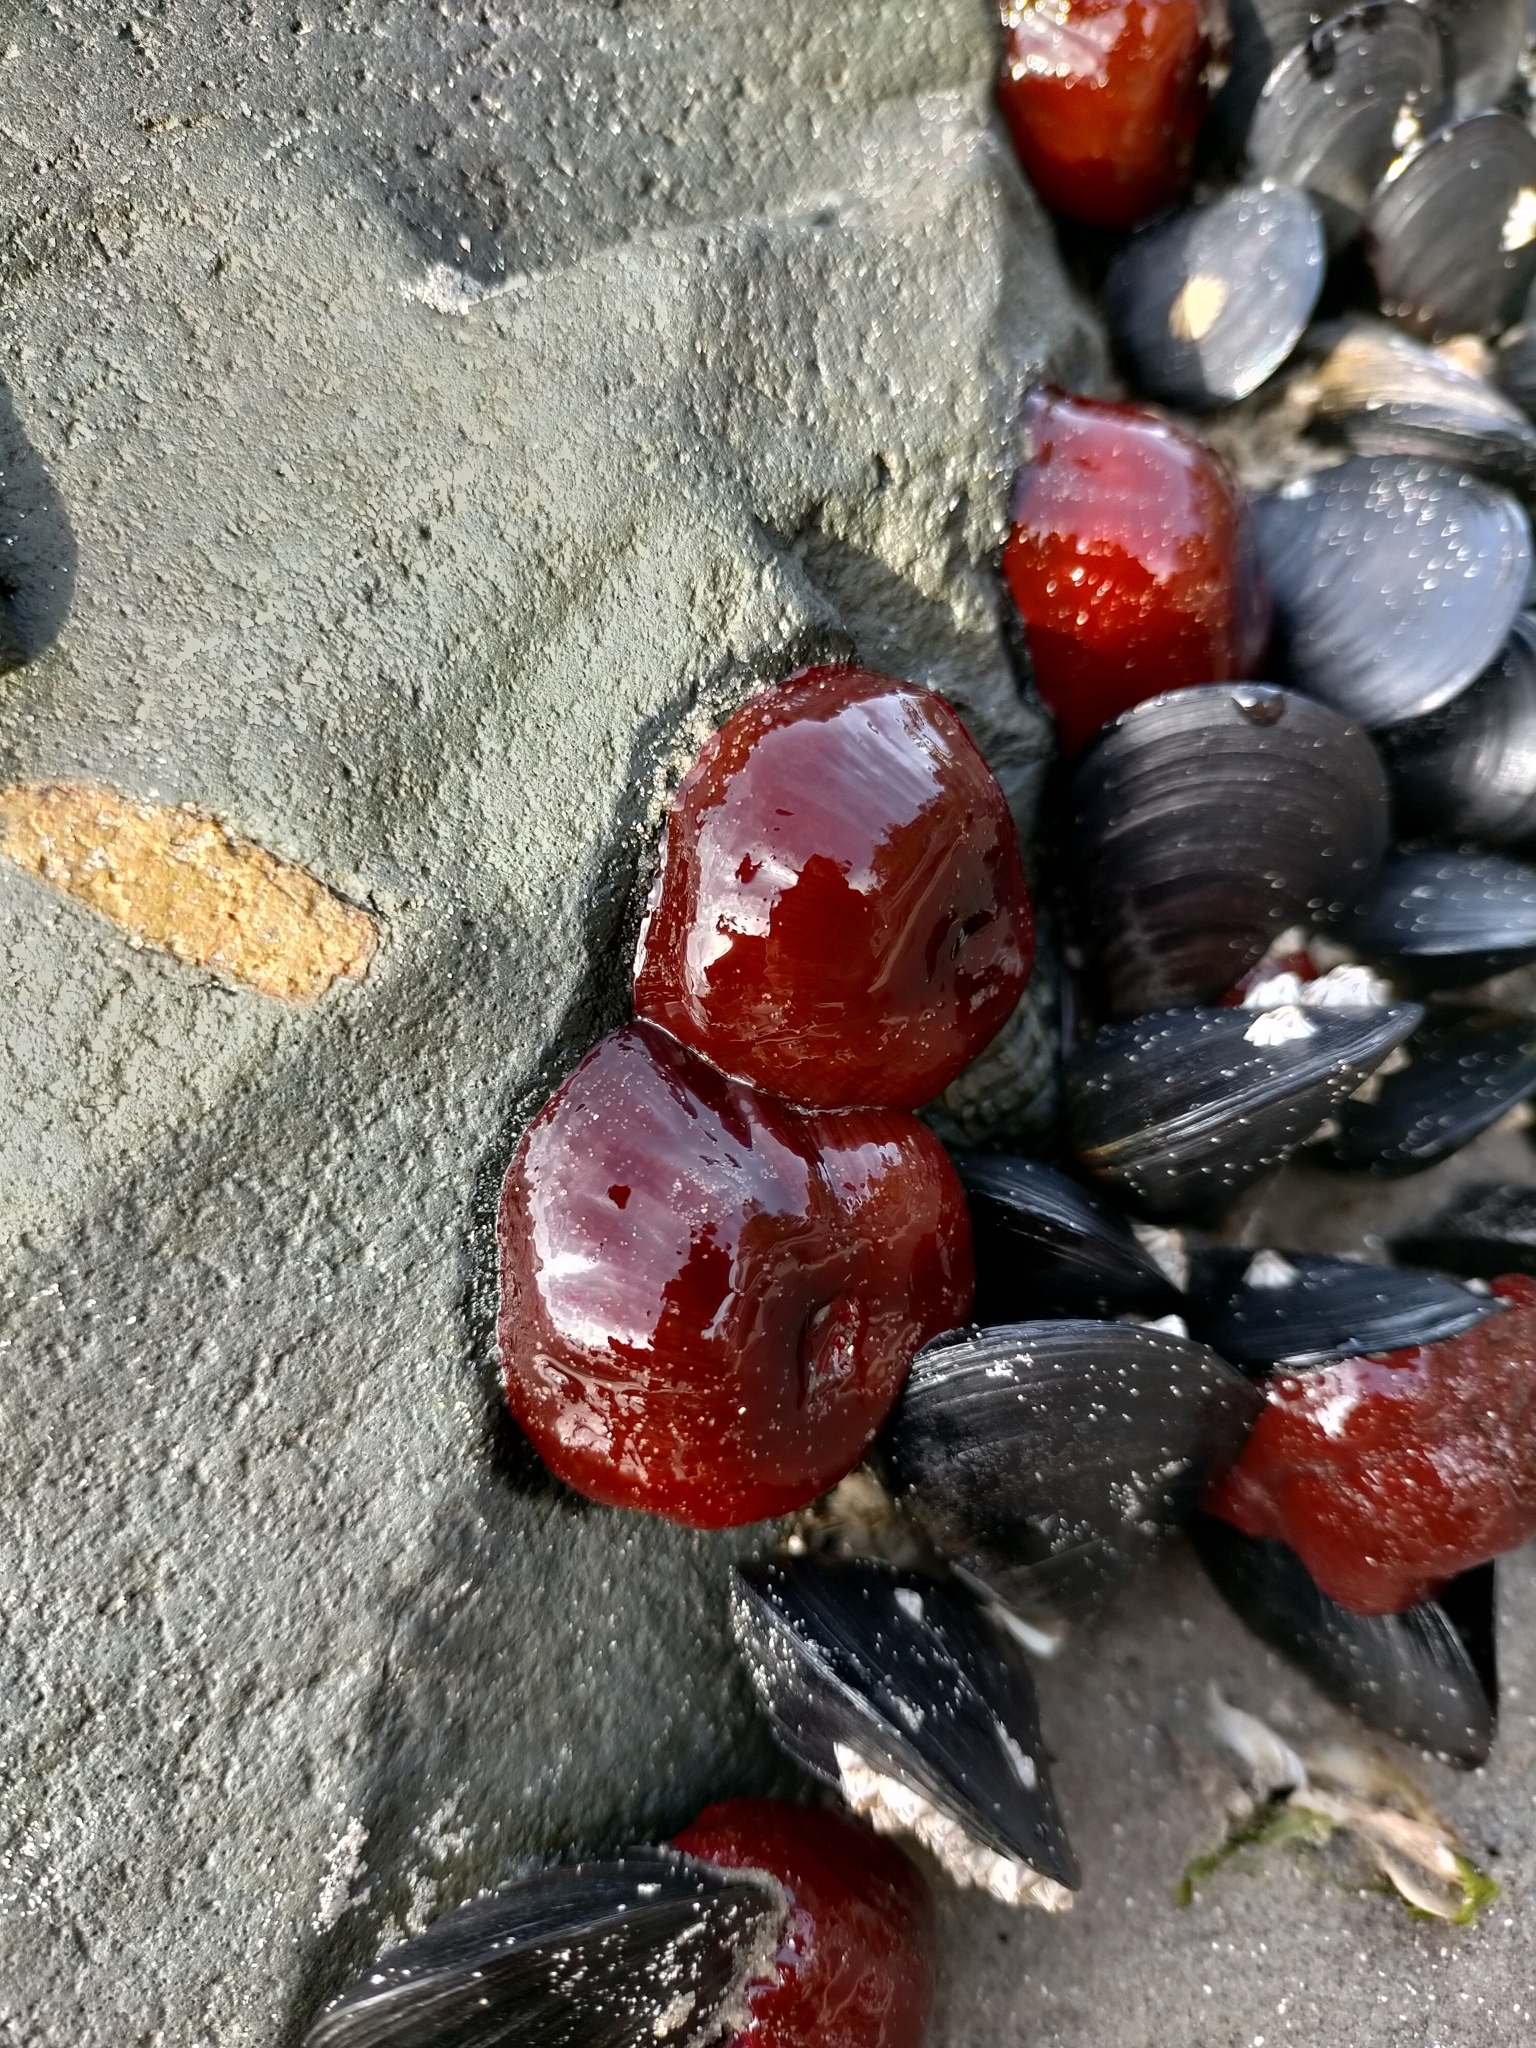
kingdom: Animalia
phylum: Cnidaria
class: Anthozoa
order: Actiniaria
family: Actiniidae
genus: Actinia
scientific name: Actinia tenebrosa
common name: Waratah anemone
